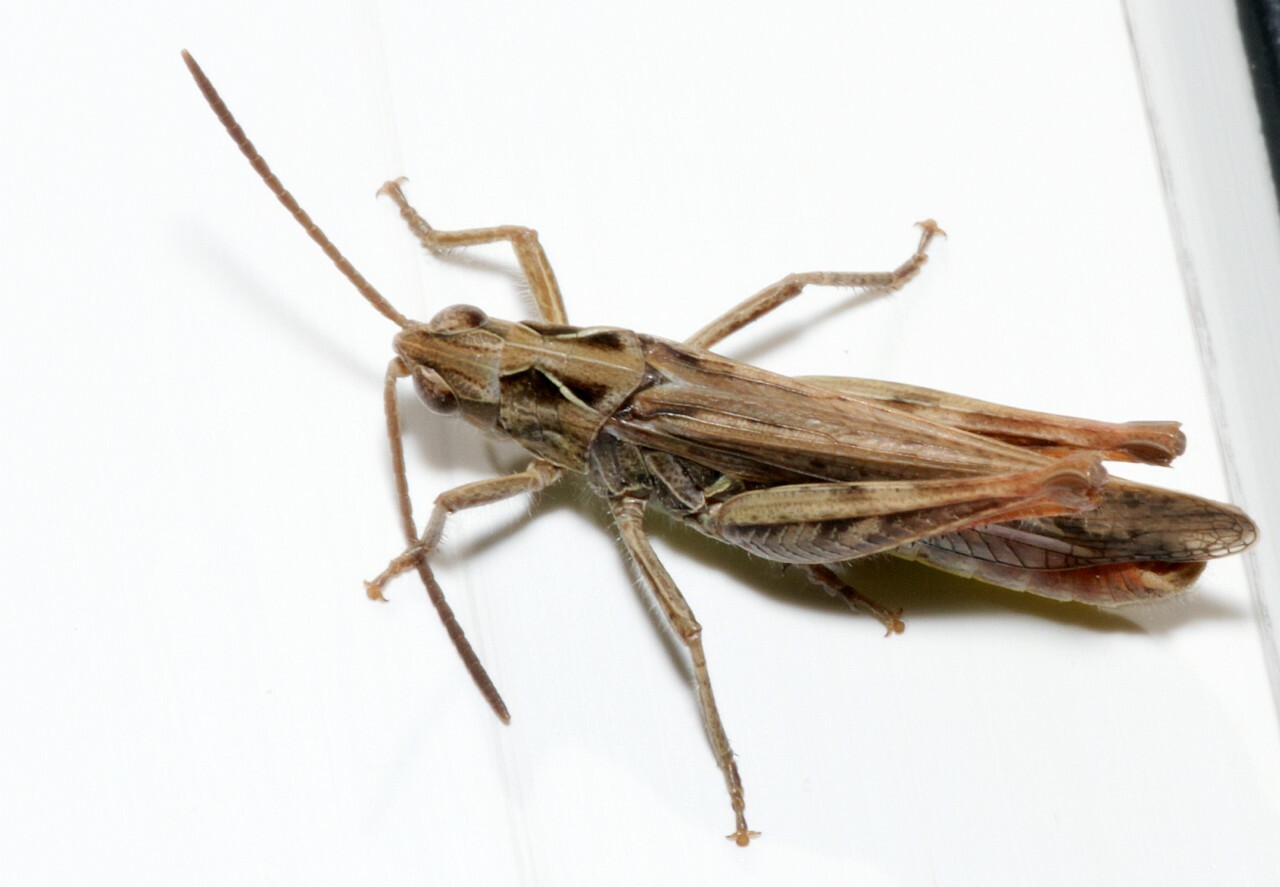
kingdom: Animalia
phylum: Arthropoda
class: Insecta
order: Orthoptera
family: Acrididae
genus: Chorthippus
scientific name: Chorthippus biguttulus
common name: Bow-winged grasshopper
